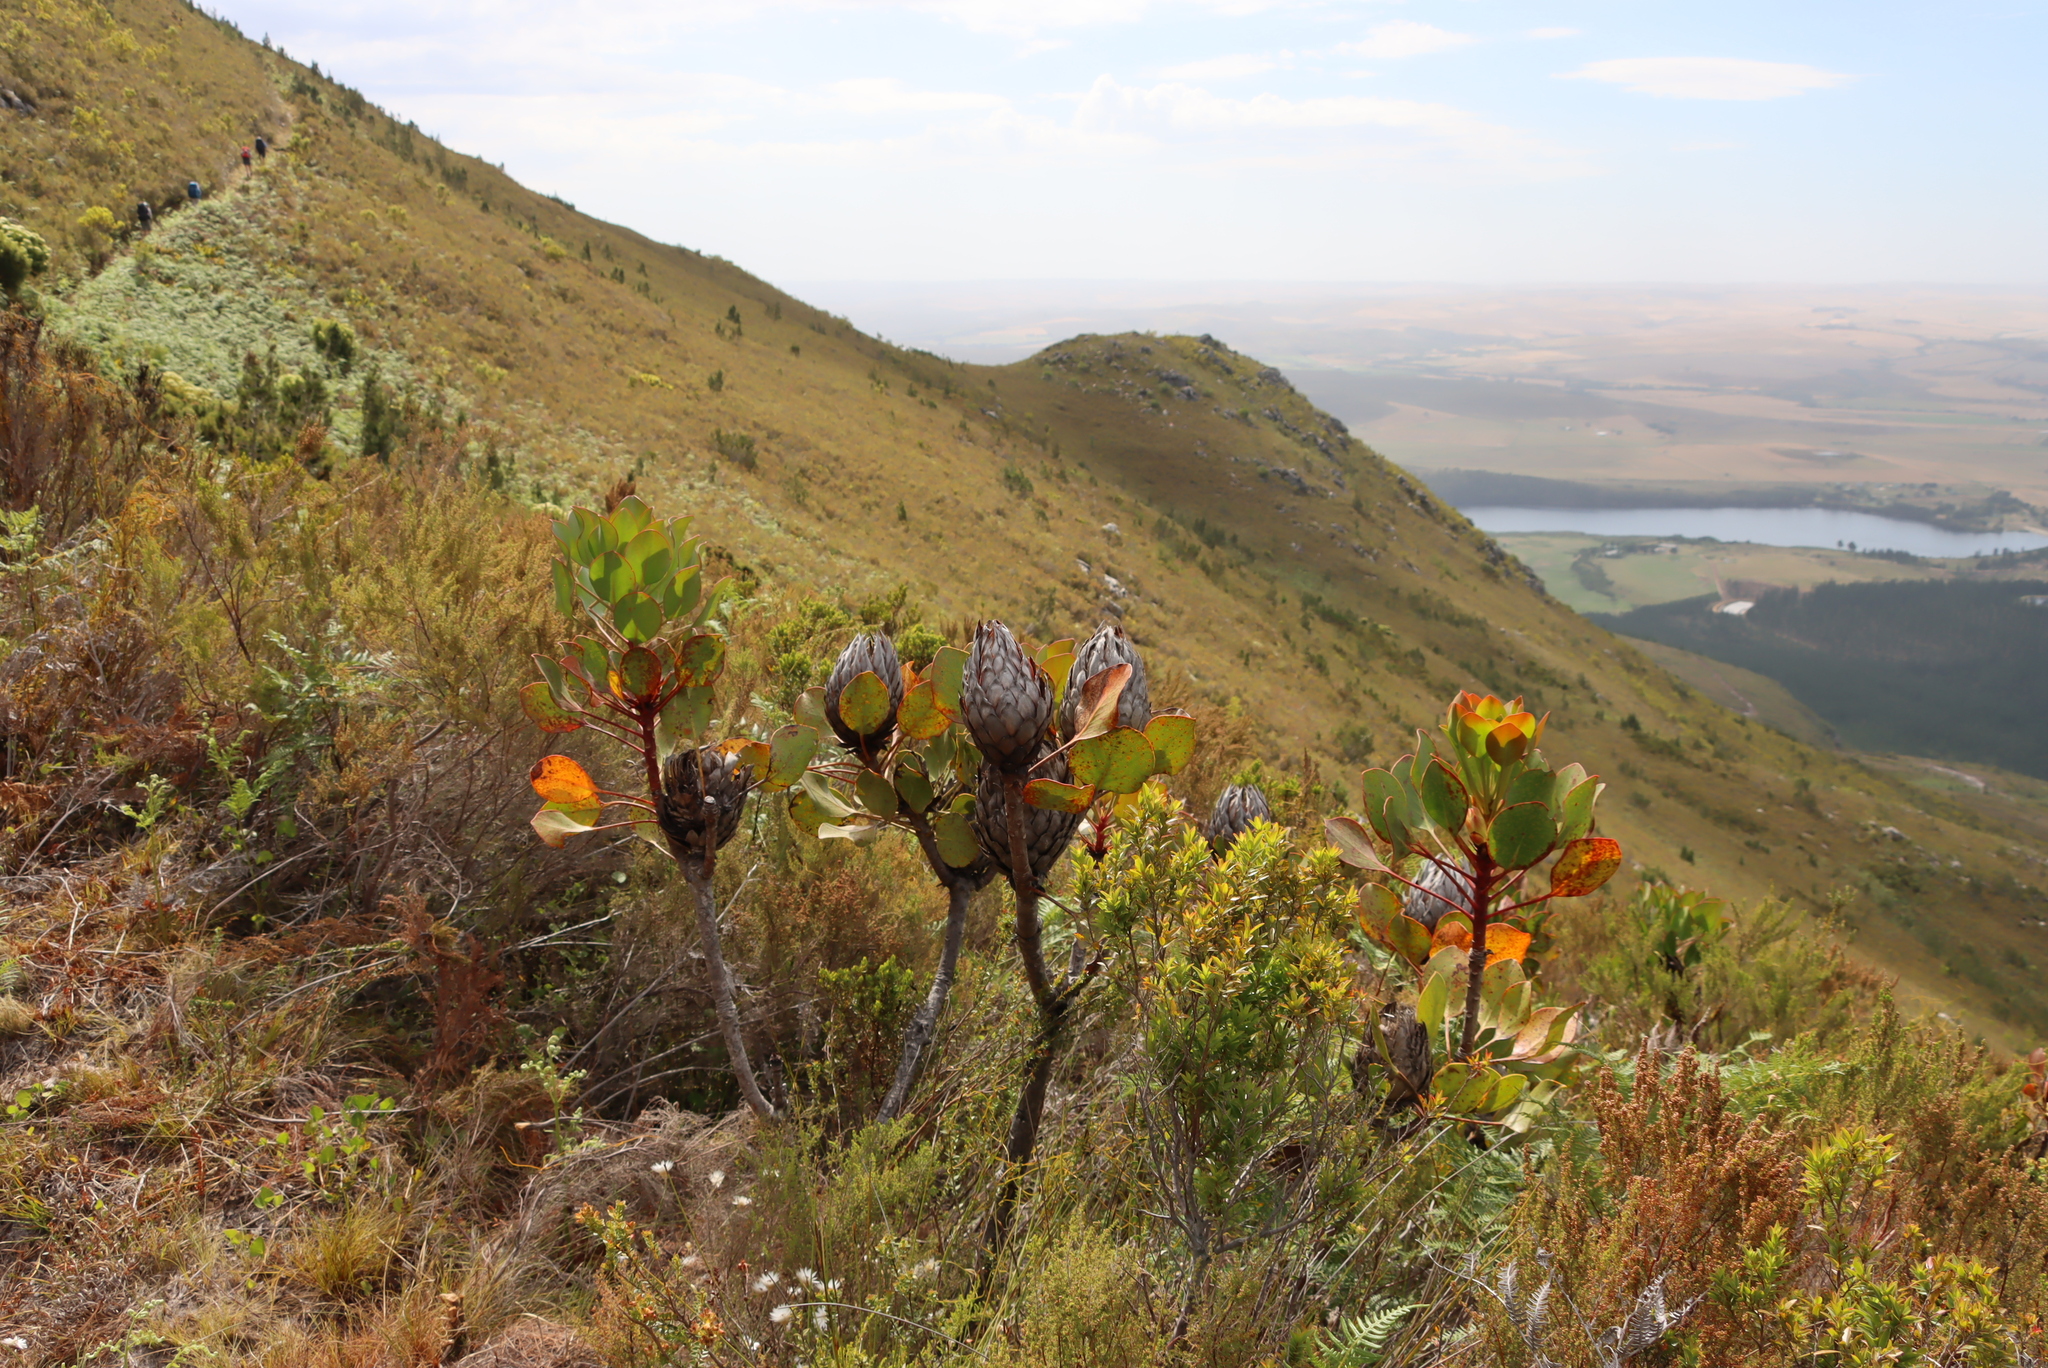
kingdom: Plantae
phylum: Tracheophyta
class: Magnoliopsida
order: Proteales
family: Proteaceae
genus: Protea
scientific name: Protea cynaroides
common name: King protea
